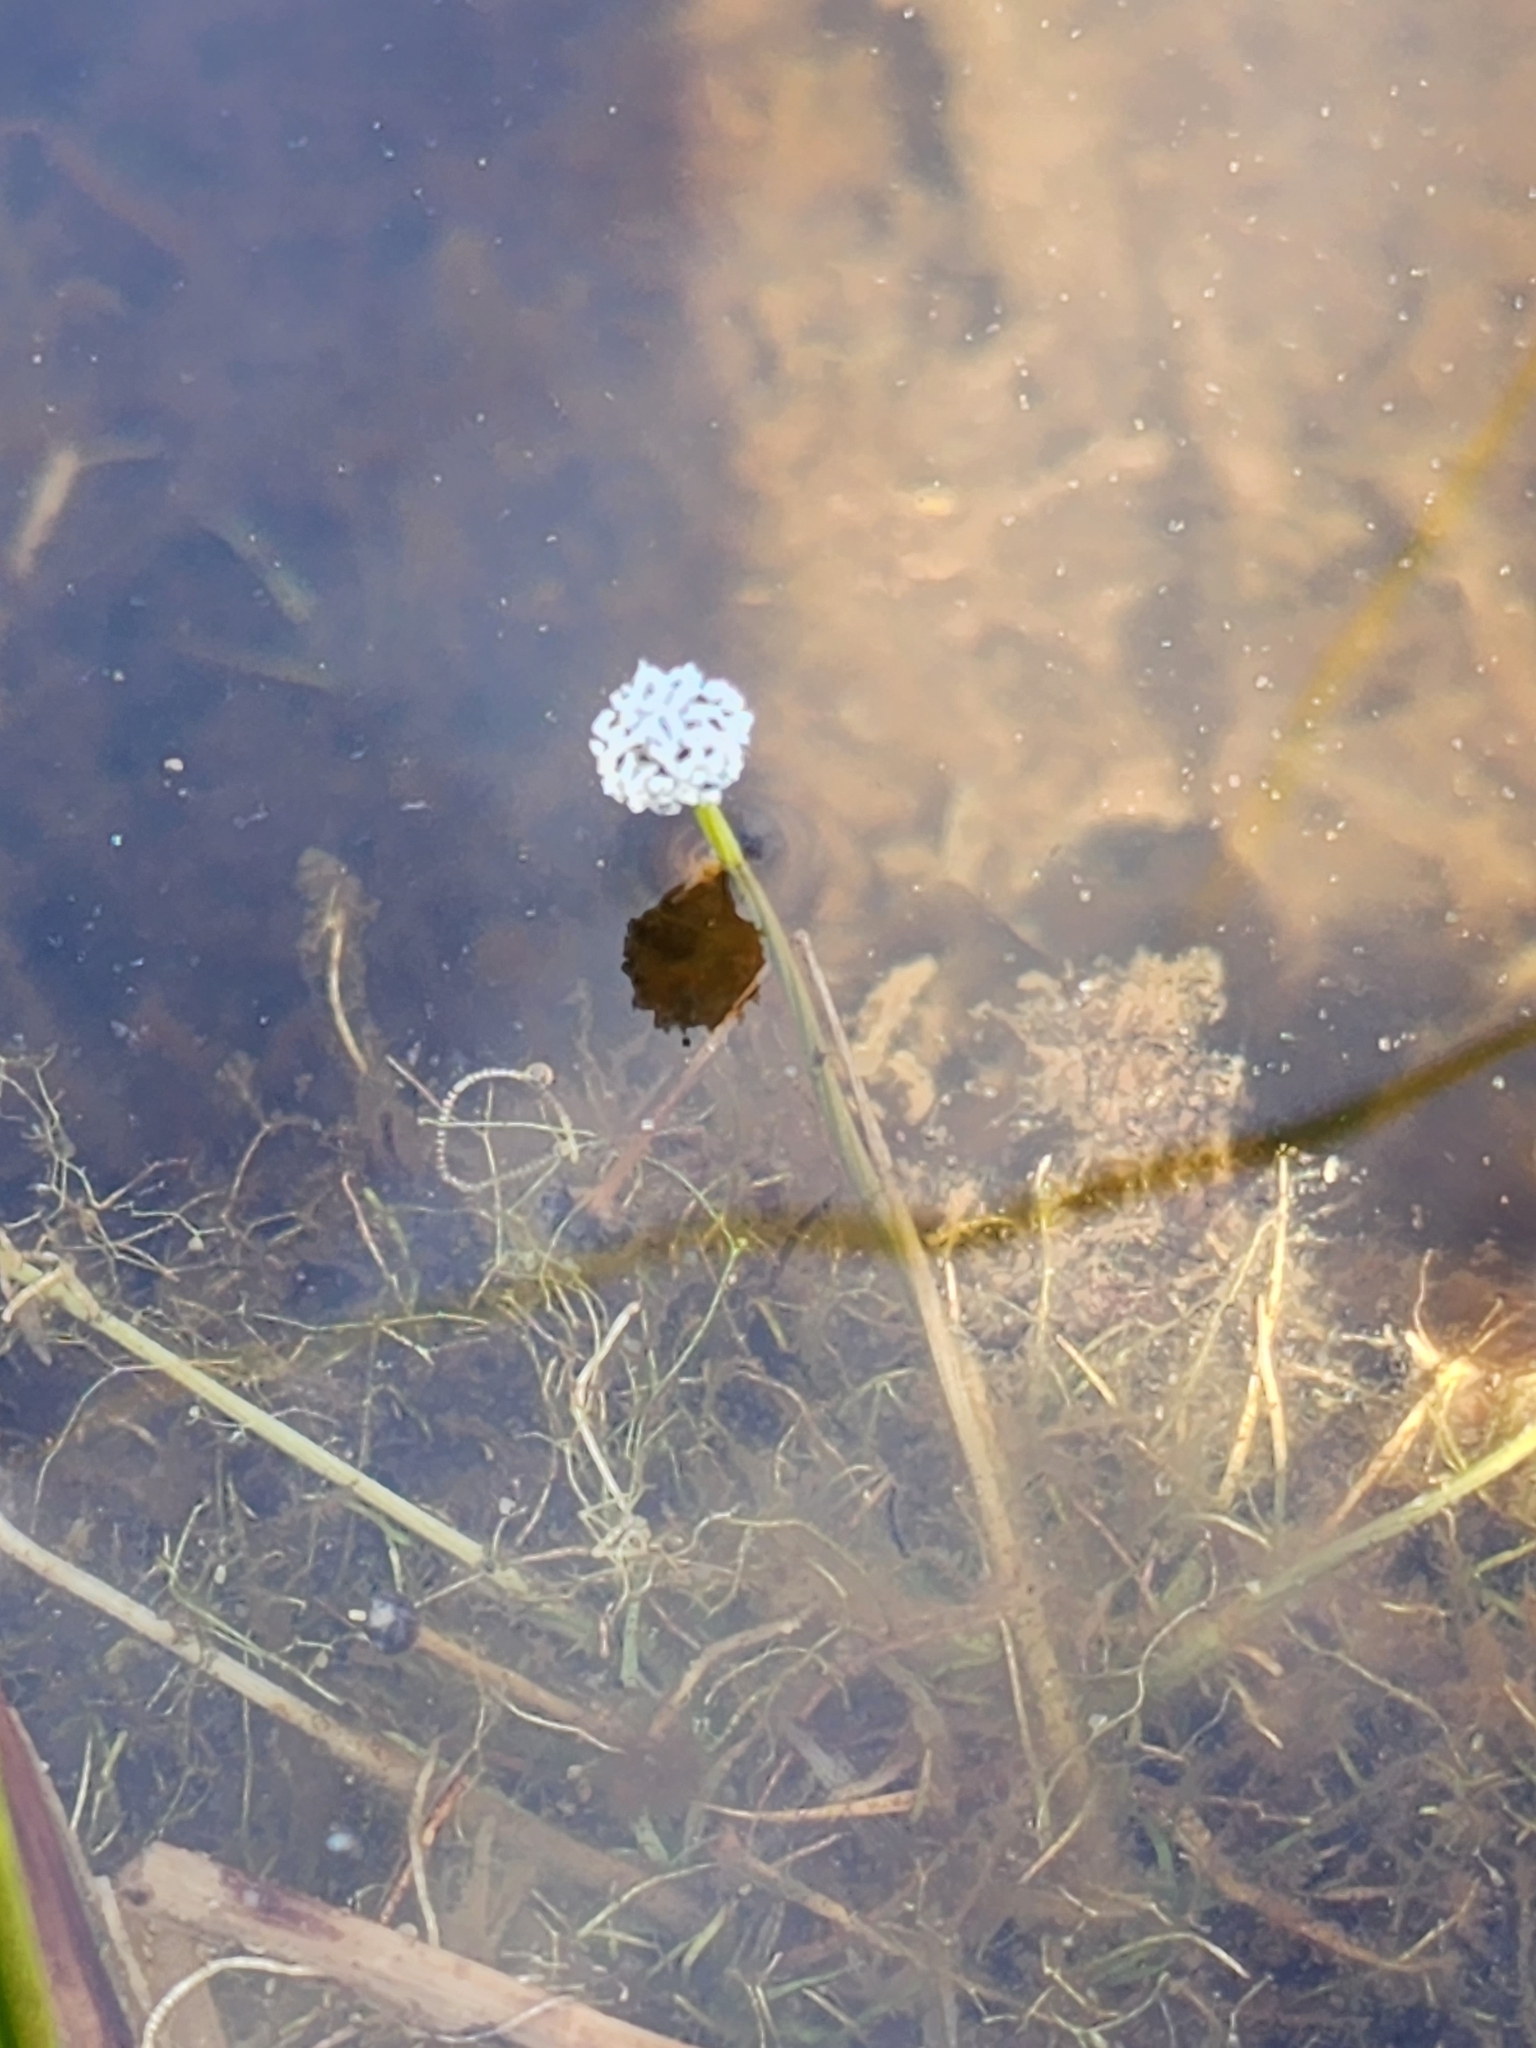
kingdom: Plantae
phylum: Tracheophyta
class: Liliopsida
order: Poales
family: Eriocaulaceae
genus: Eriocaulon
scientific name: Eriocaulon aquaticum
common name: Pipewort
